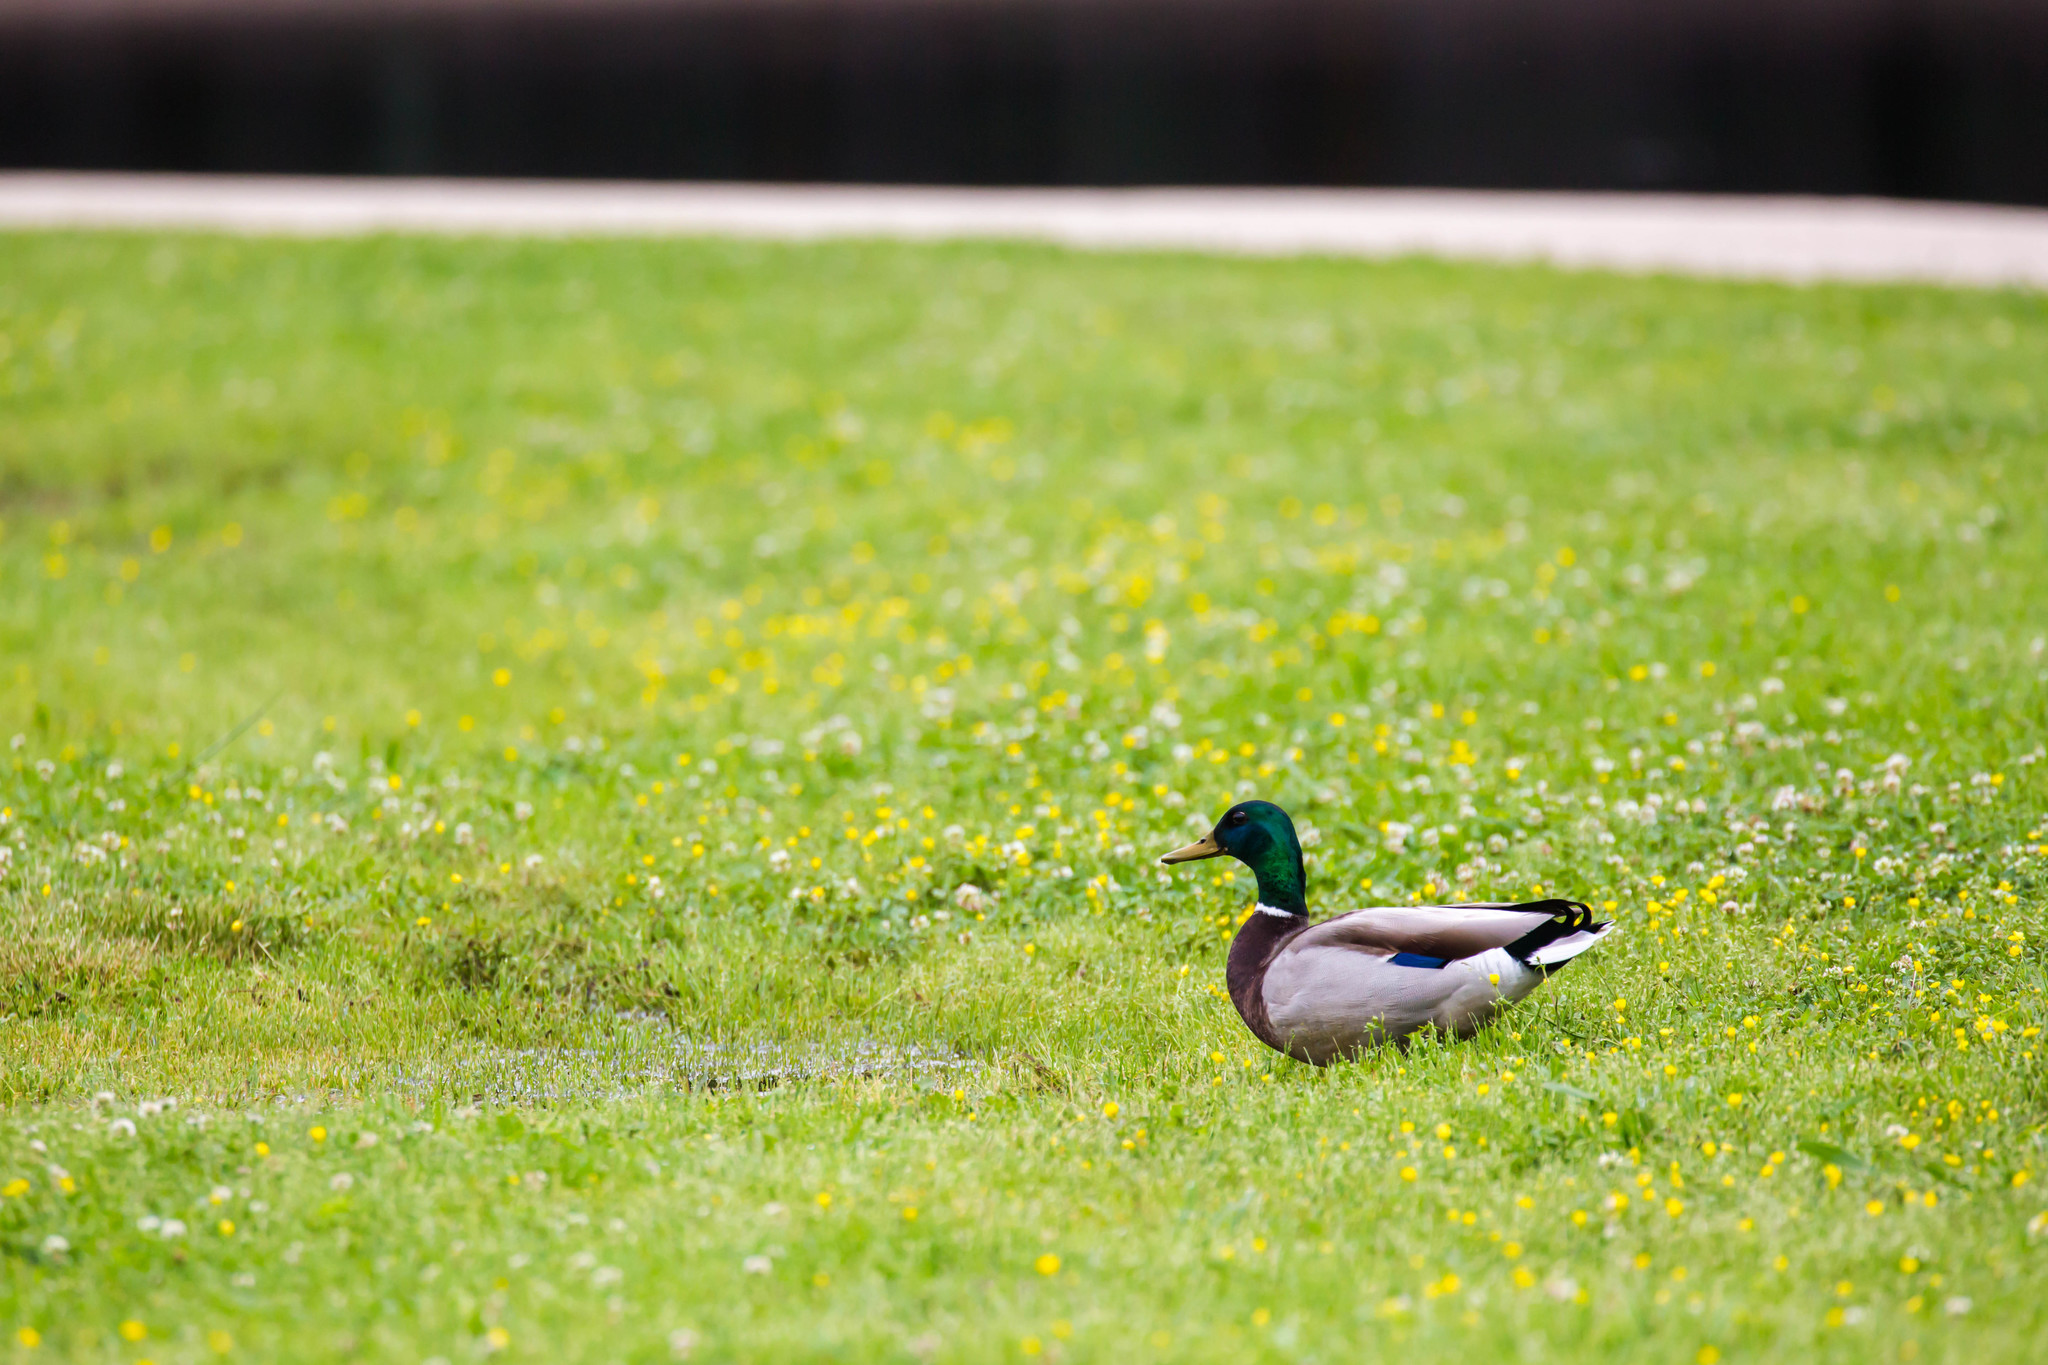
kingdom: Animalia
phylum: Chordata
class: Aves
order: Anseriformes
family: Anatidae
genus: Anas
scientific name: Anas platyrhynchos
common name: Mallard
